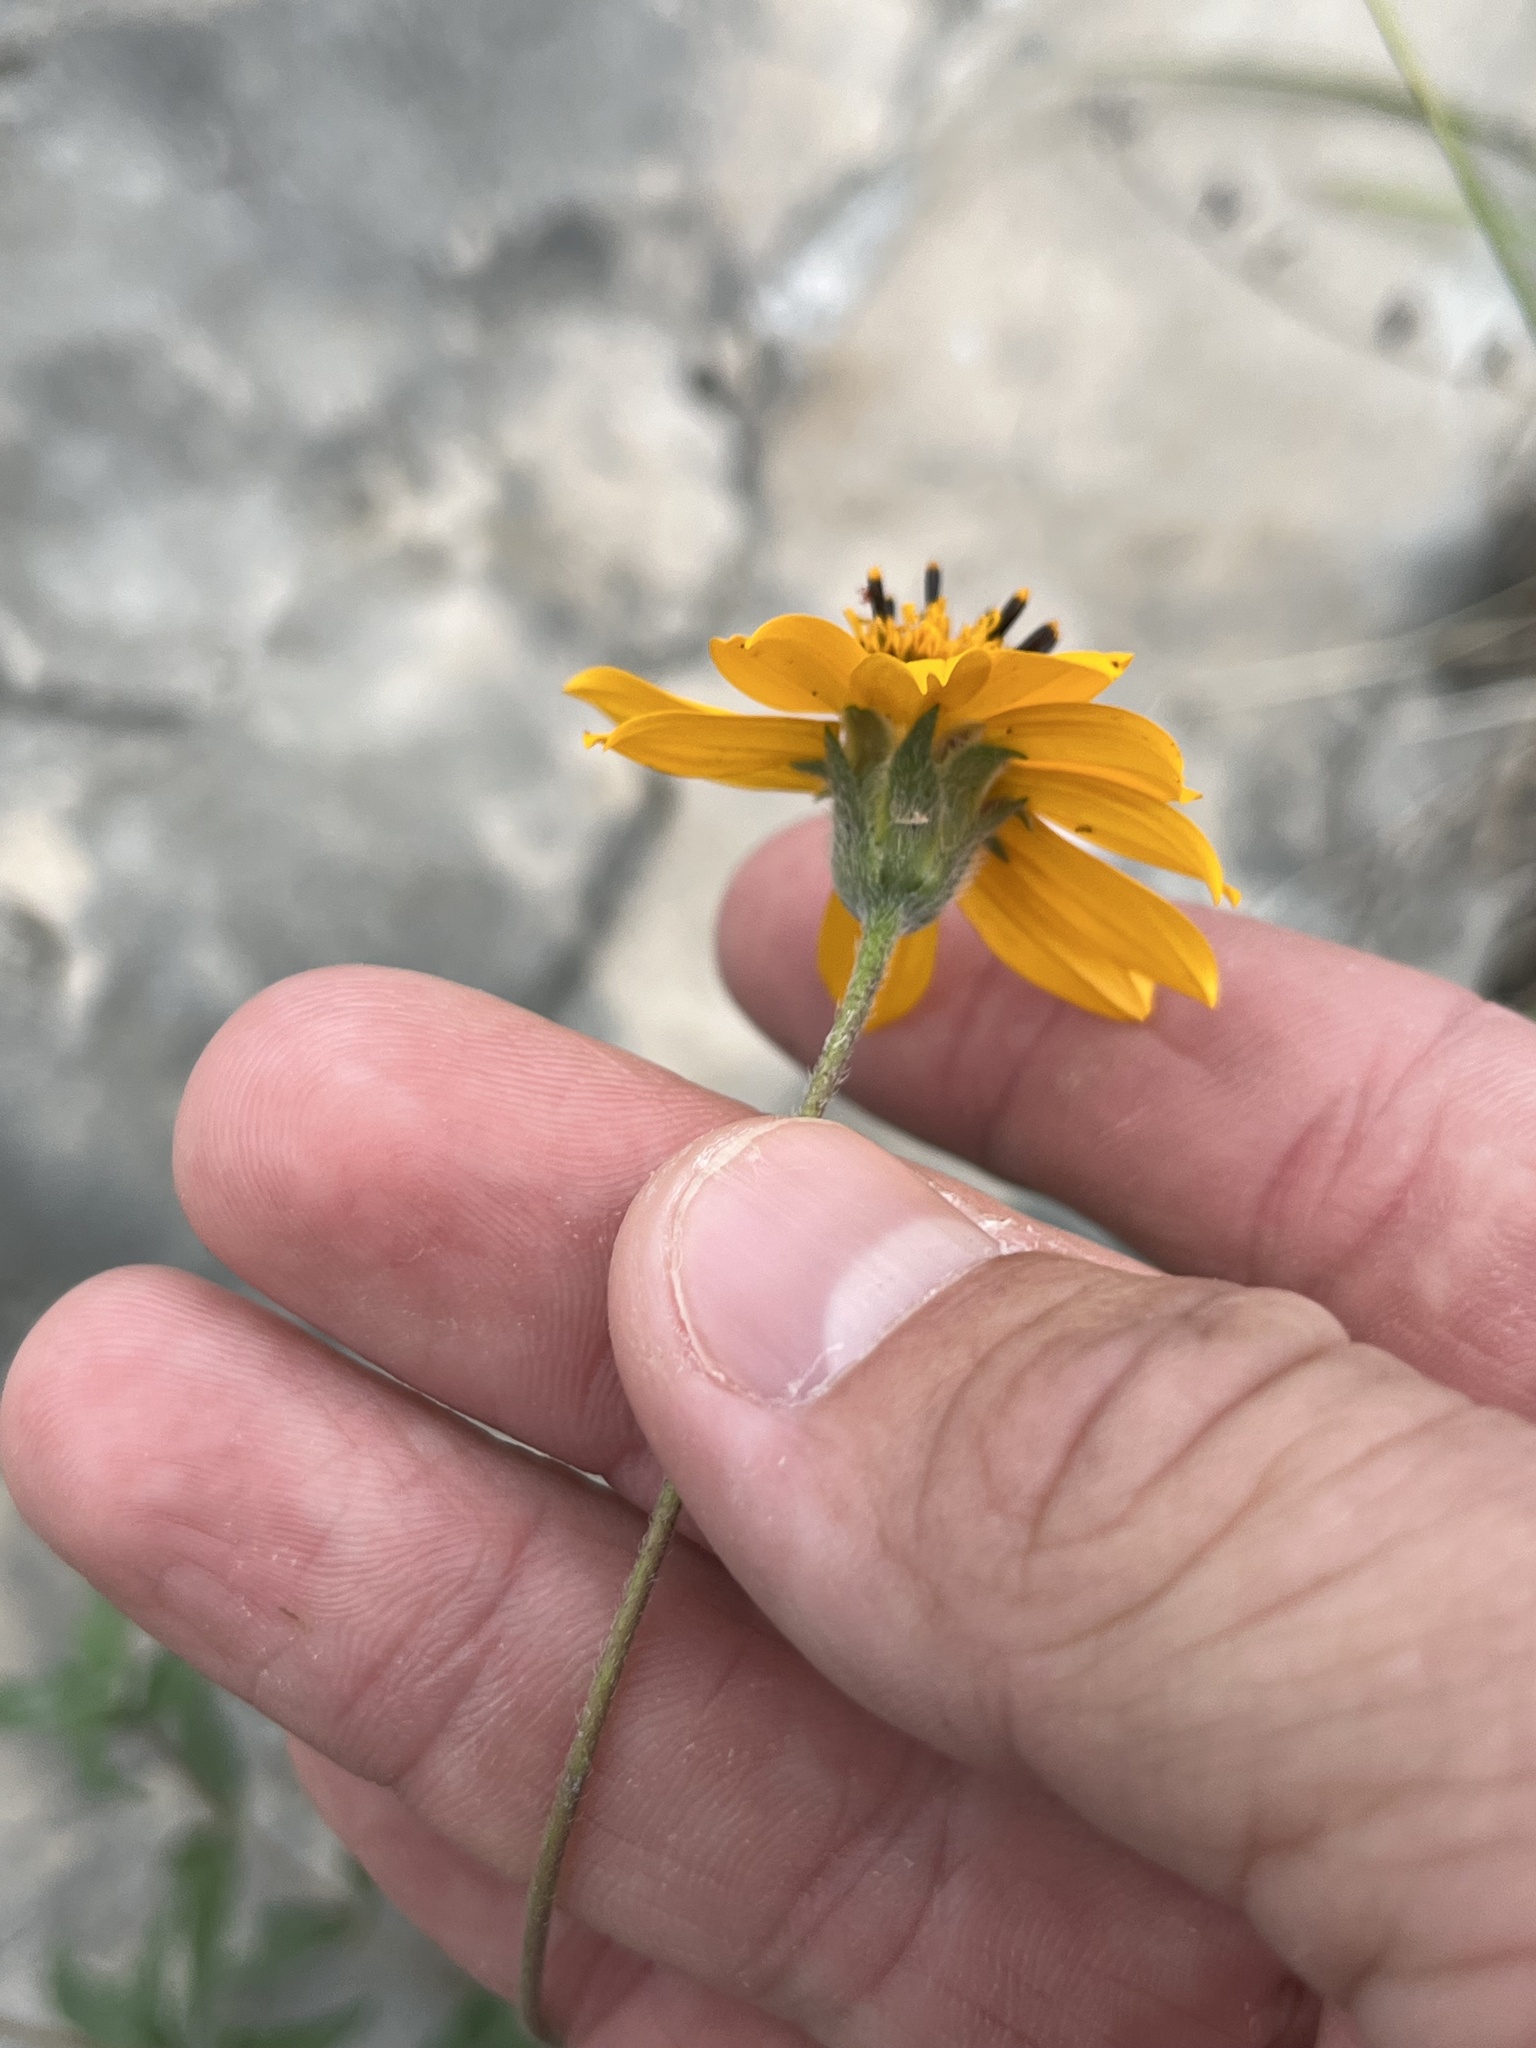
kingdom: Plantae
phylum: Tracheophyta
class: Magnoliopsida
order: Asterales
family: Asteraceae
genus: Wedelia
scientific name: Wedelia acapulcensis
